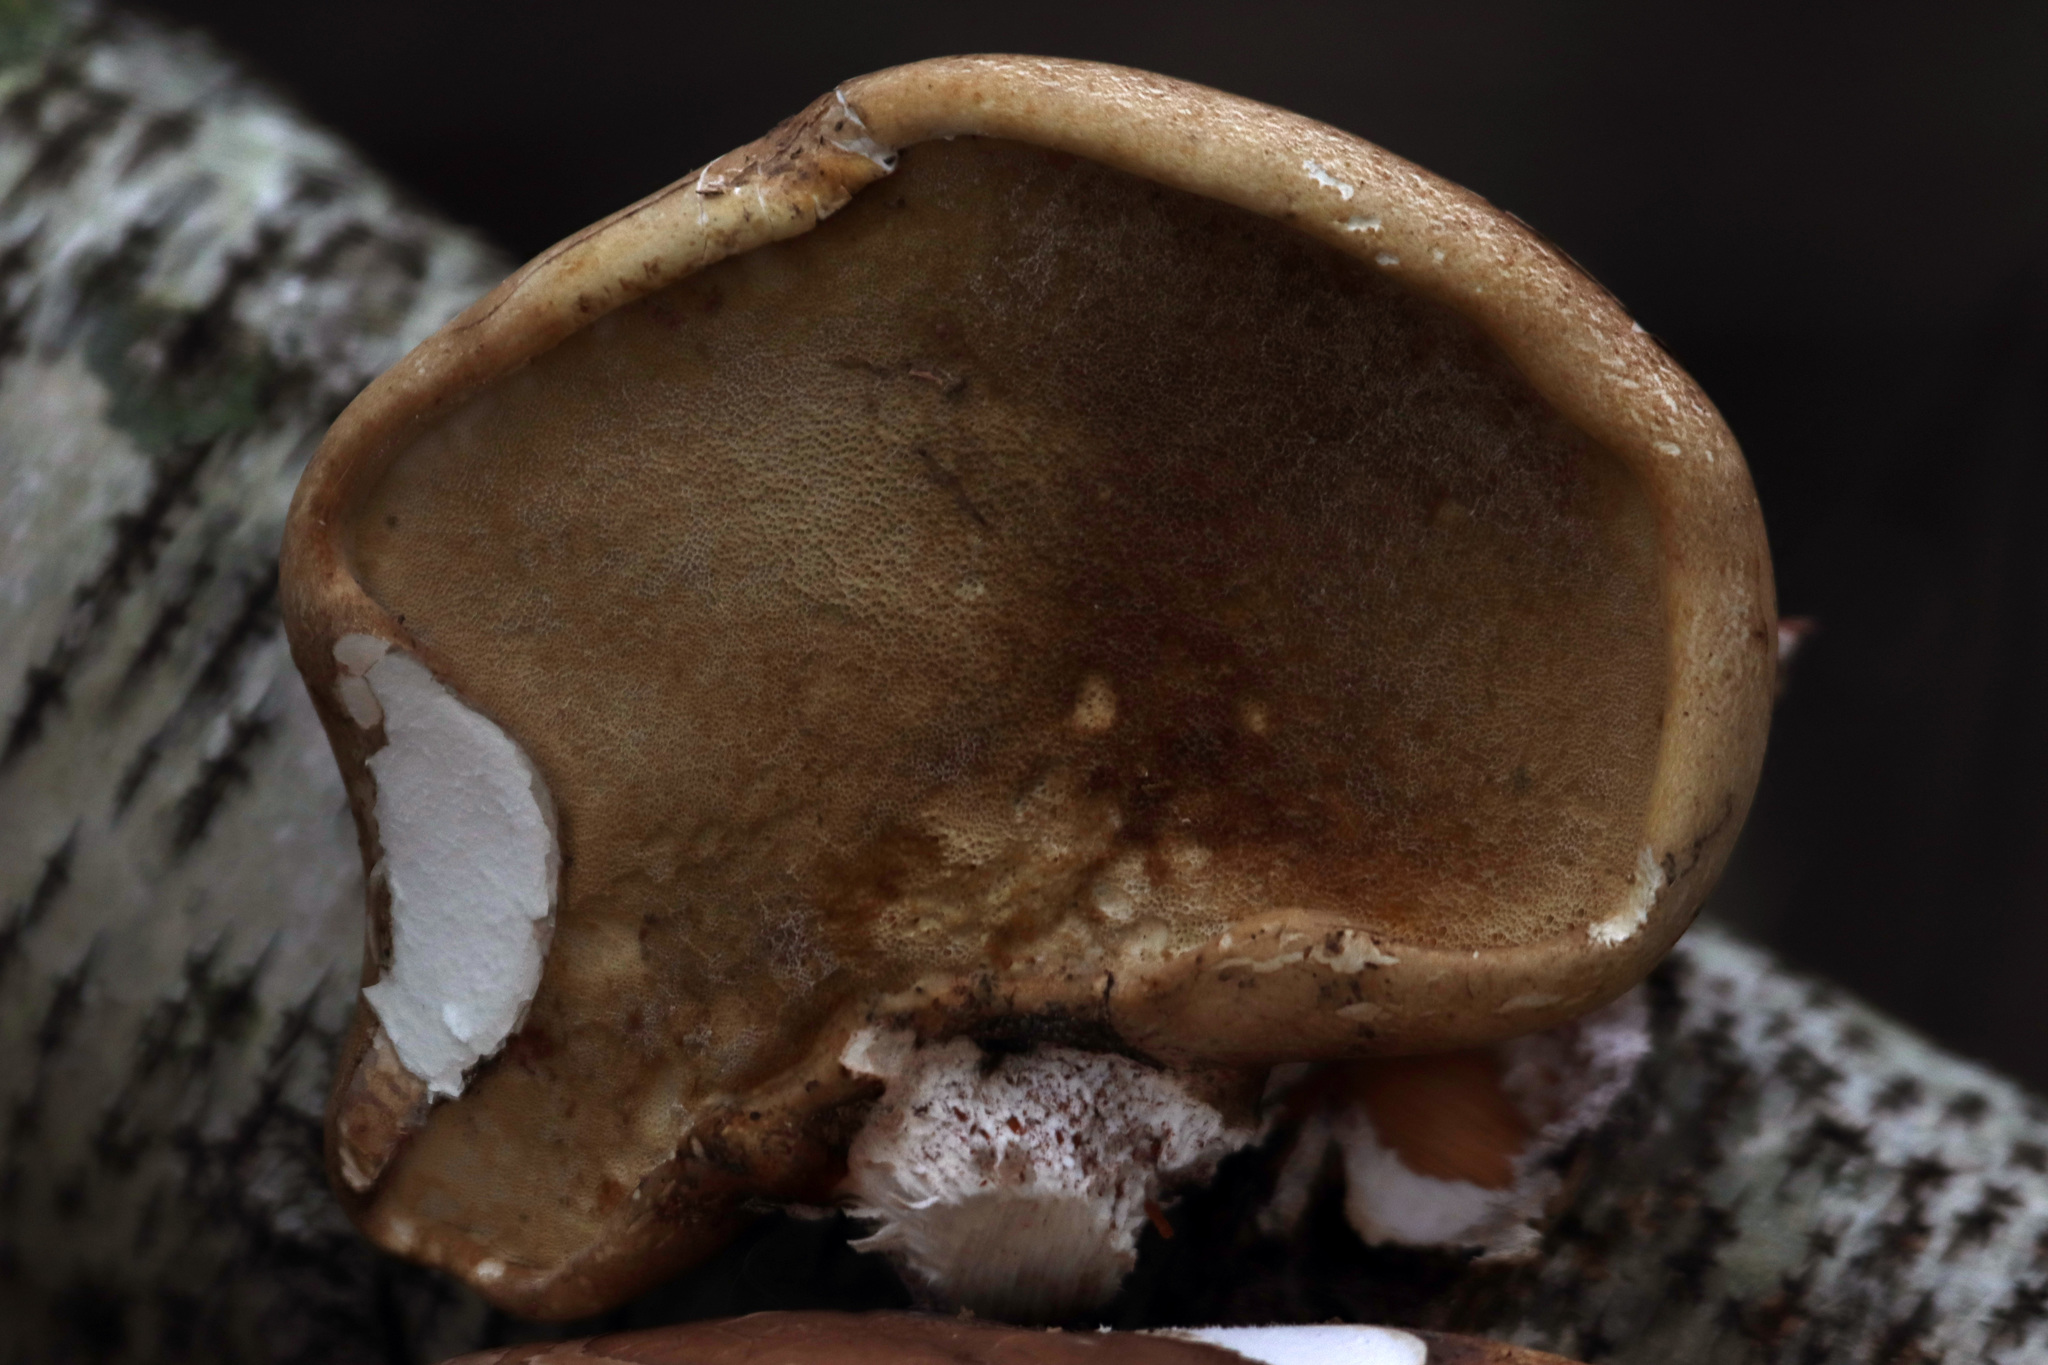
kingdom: Fungi
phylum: Basidiomycota
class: Agaricomycetes
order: Polyporales
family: Fomitopsidaceae
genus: Fomitopsis
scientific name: Fomitopsis betulina
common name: Birch polypore
